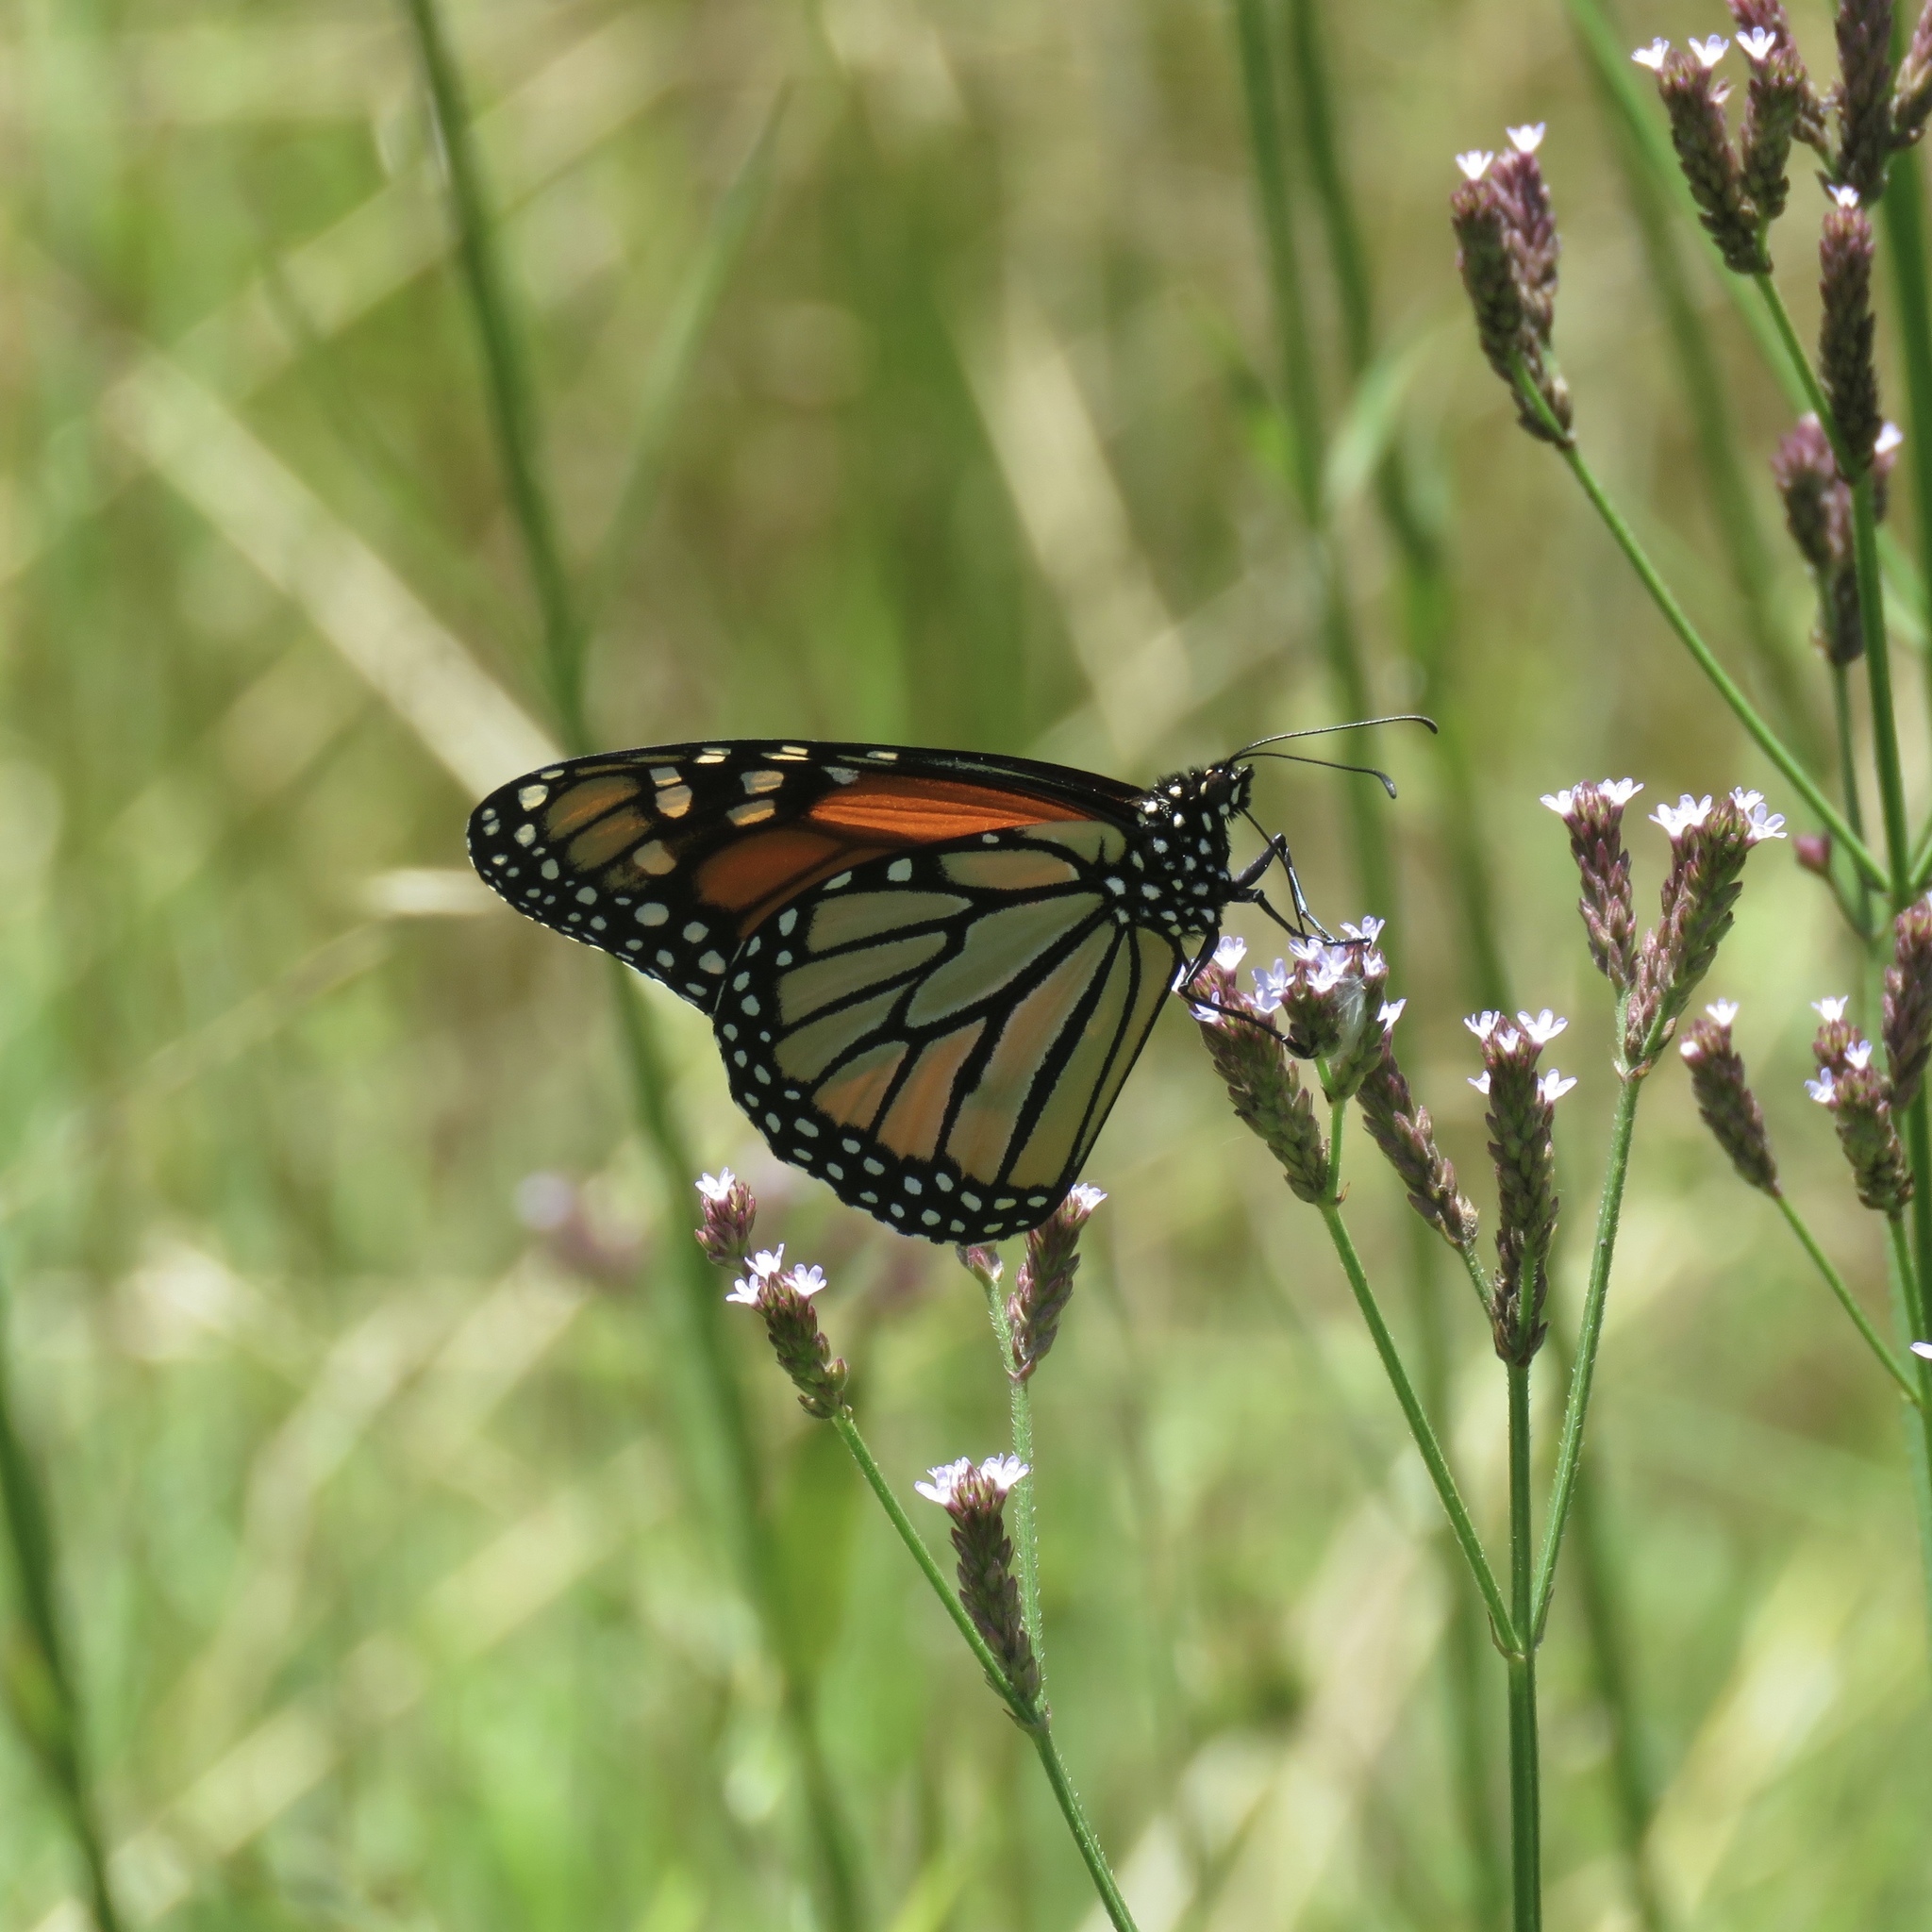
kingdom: Animalia
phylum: Arthropoda
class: Insecta
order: Lepidoptera
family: Nymphalidae
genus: Danaus
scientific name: Danaus plexippus
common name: Monarch
